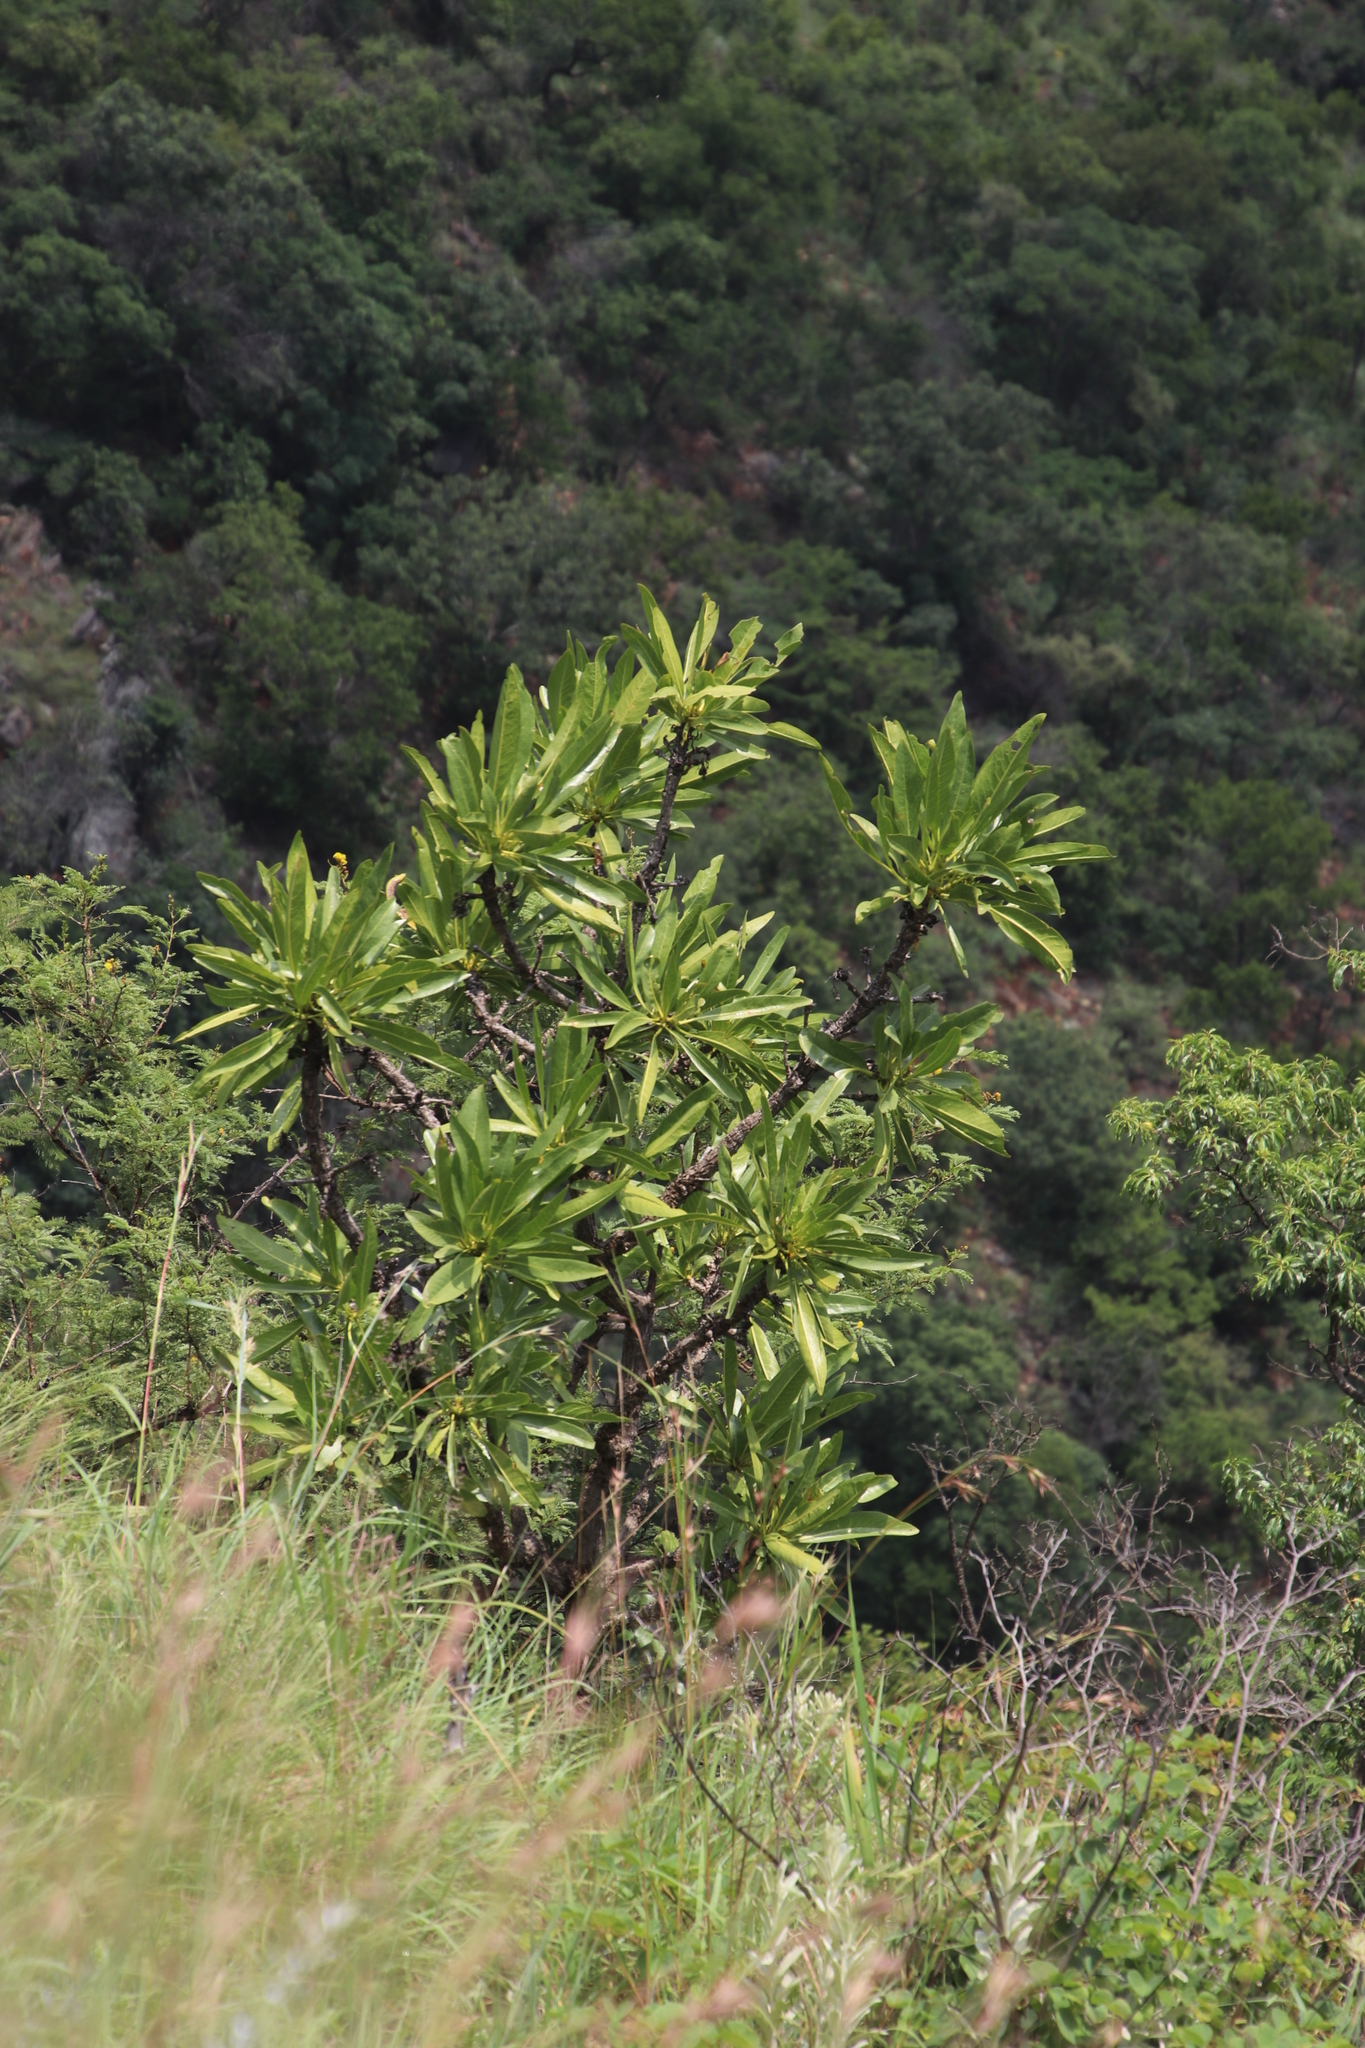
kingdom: Plantae
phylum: Tracheophyta
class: Magnoliopsida
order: Gentianales
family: Rubiaceae
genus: Pavetta
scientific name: Pavetta edentula
